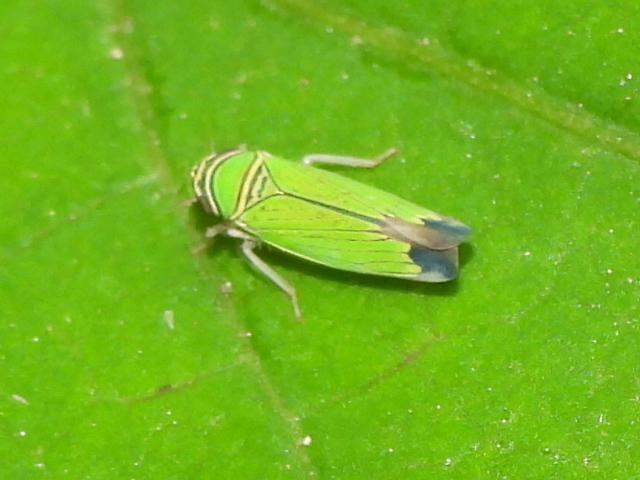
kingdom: Animalia
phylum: Arthropoda
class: Insecta
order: Hemiptera
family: Cicadellidae
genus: Tylozygus
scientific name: Tylozygus geometricus
